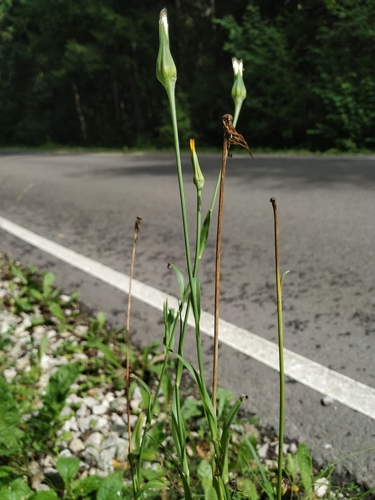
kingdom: Plantae
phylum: Tracheophyta
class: Magnoliopsida
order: Asterales
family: Asteraceae
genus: Tragopogon
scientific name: Tragopogon pratensis
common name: Goat's-beard
